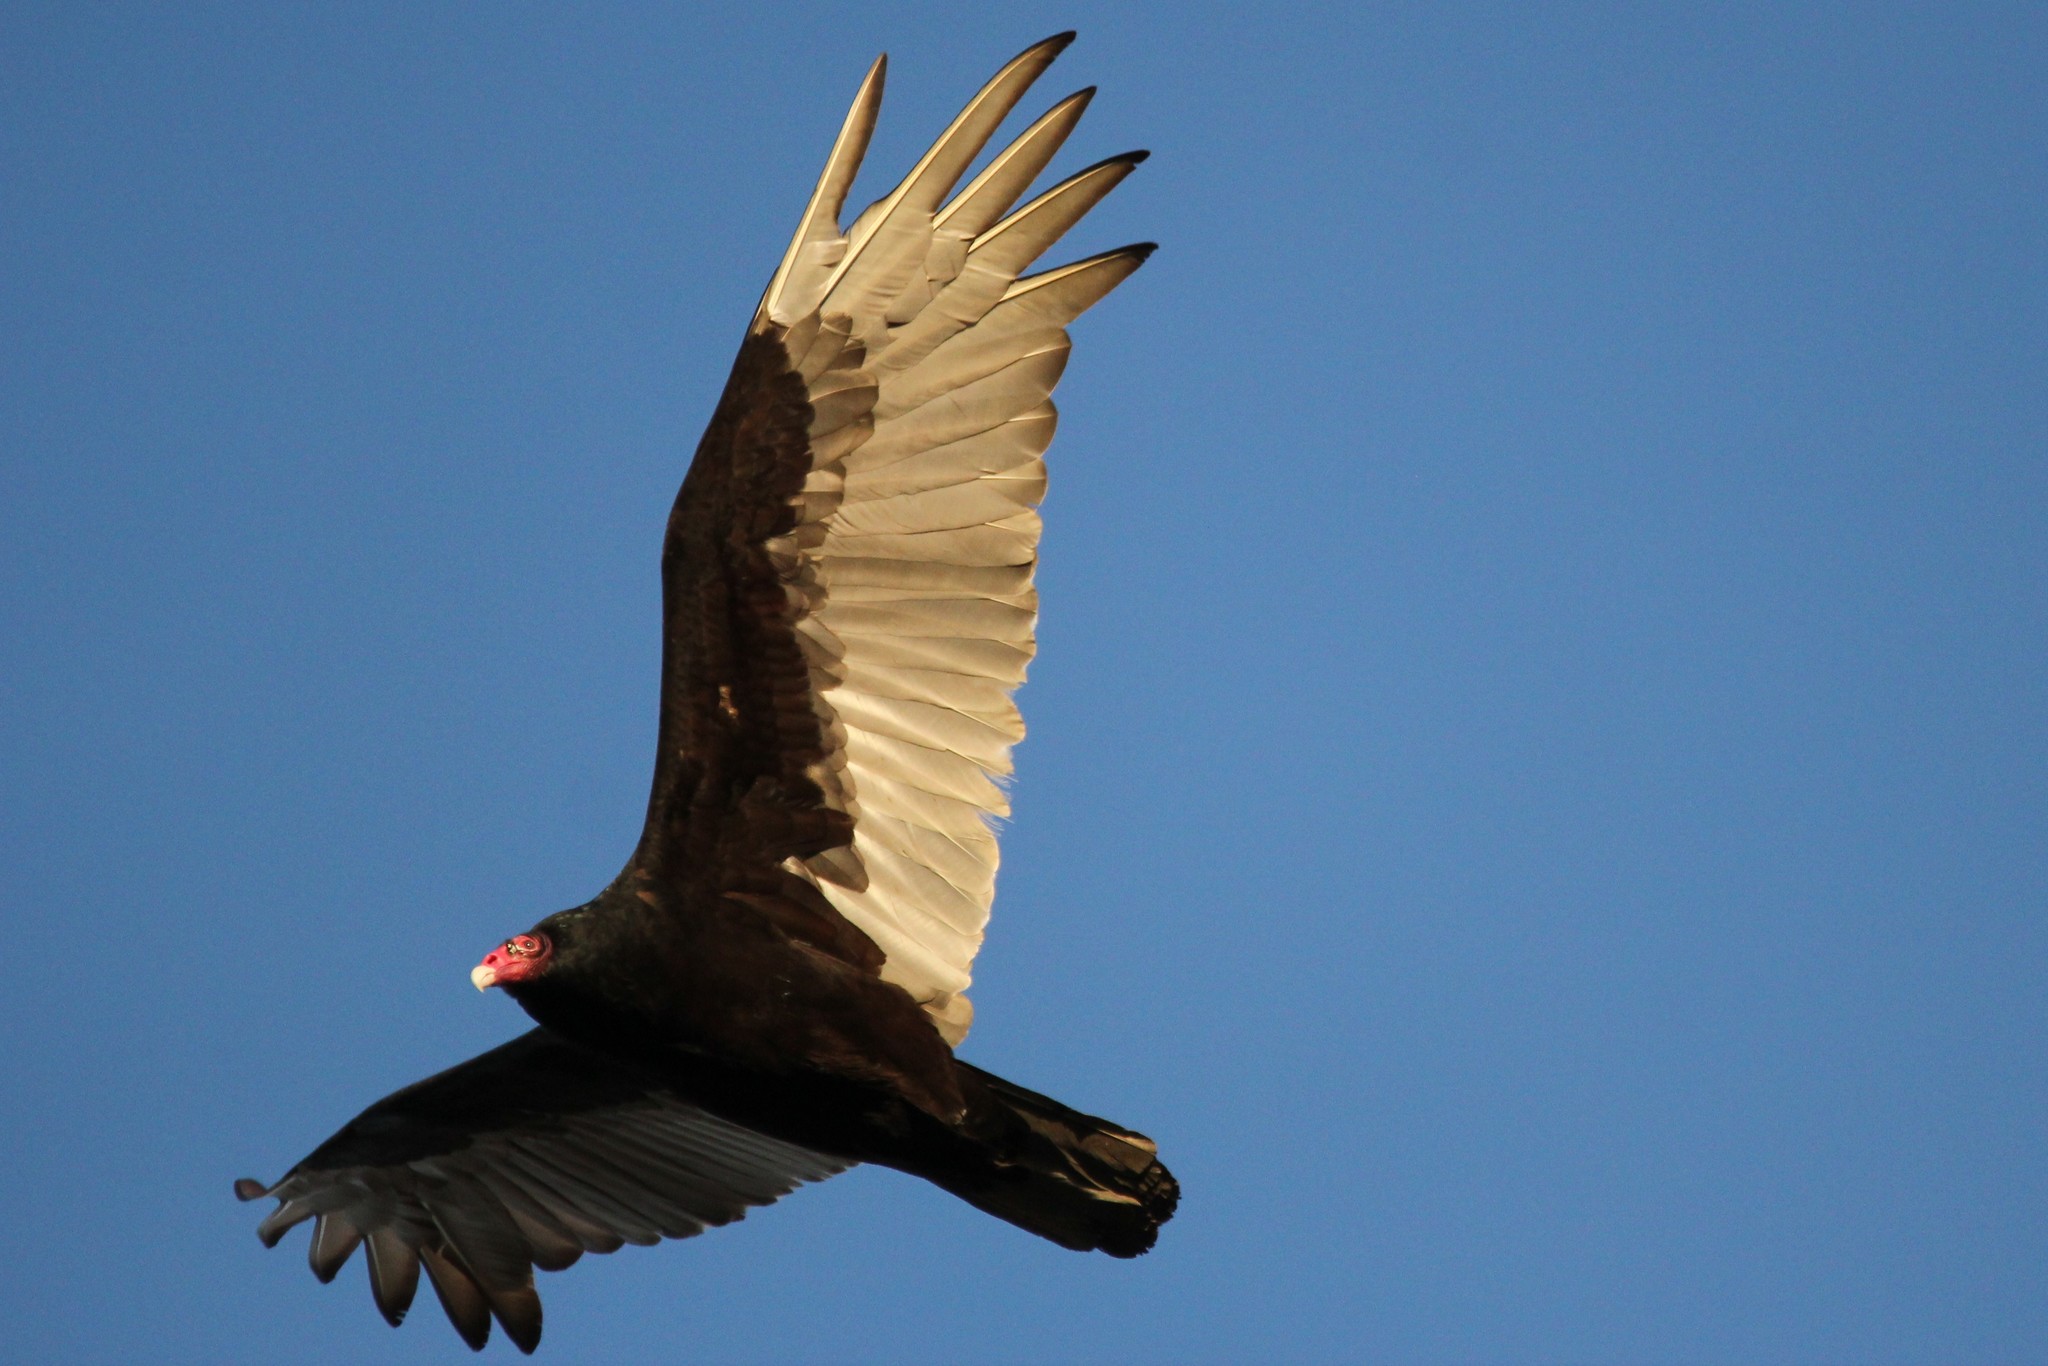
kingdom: Animalia
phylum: Chordata
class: Aves
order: Accipitriformes
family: Cathartidae
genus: Cathartes
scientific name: Cathartes aura
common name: Turkey vulture
